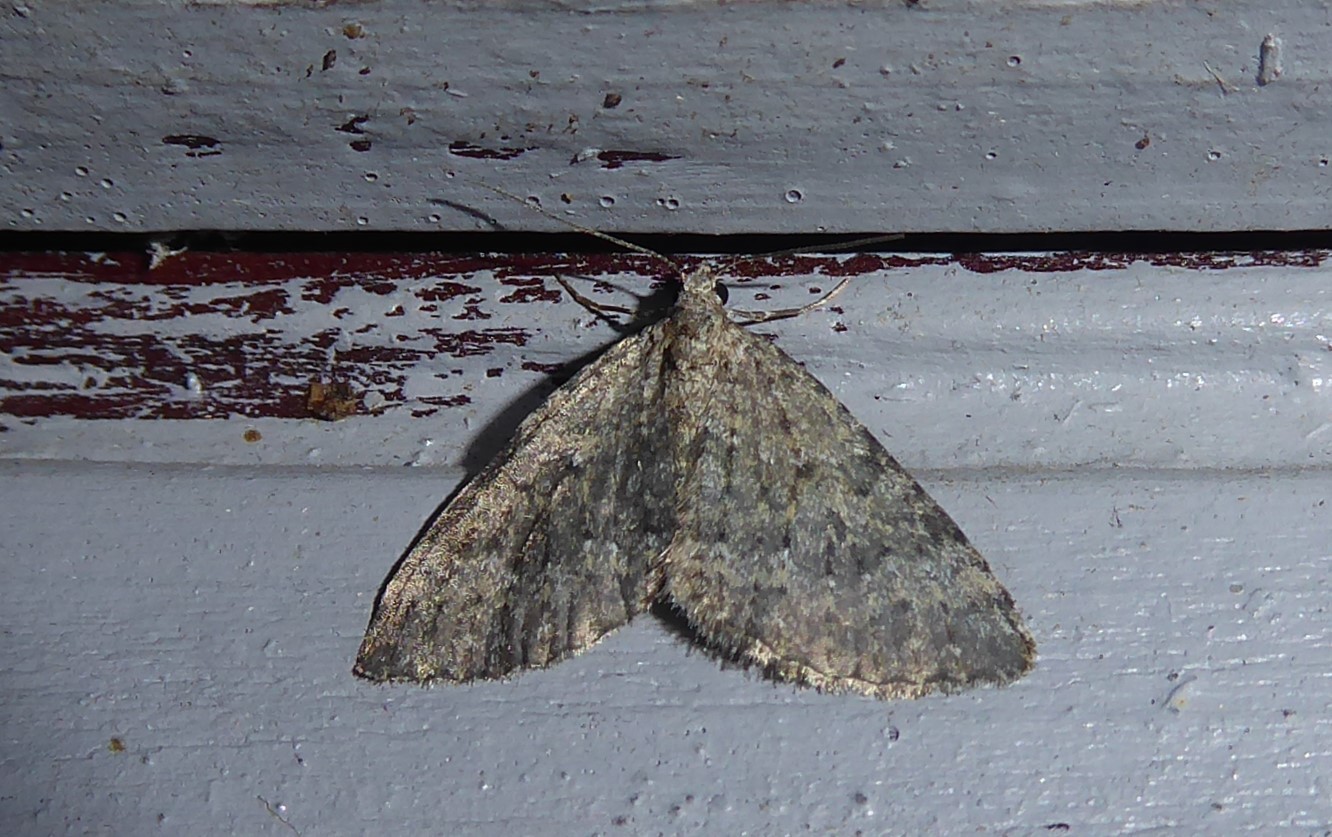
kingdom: Animalia
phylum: Arthropoda
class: Insecta
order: Lepidoptera
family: Geometridae
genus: Helastia
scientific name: Helastia corcularia
